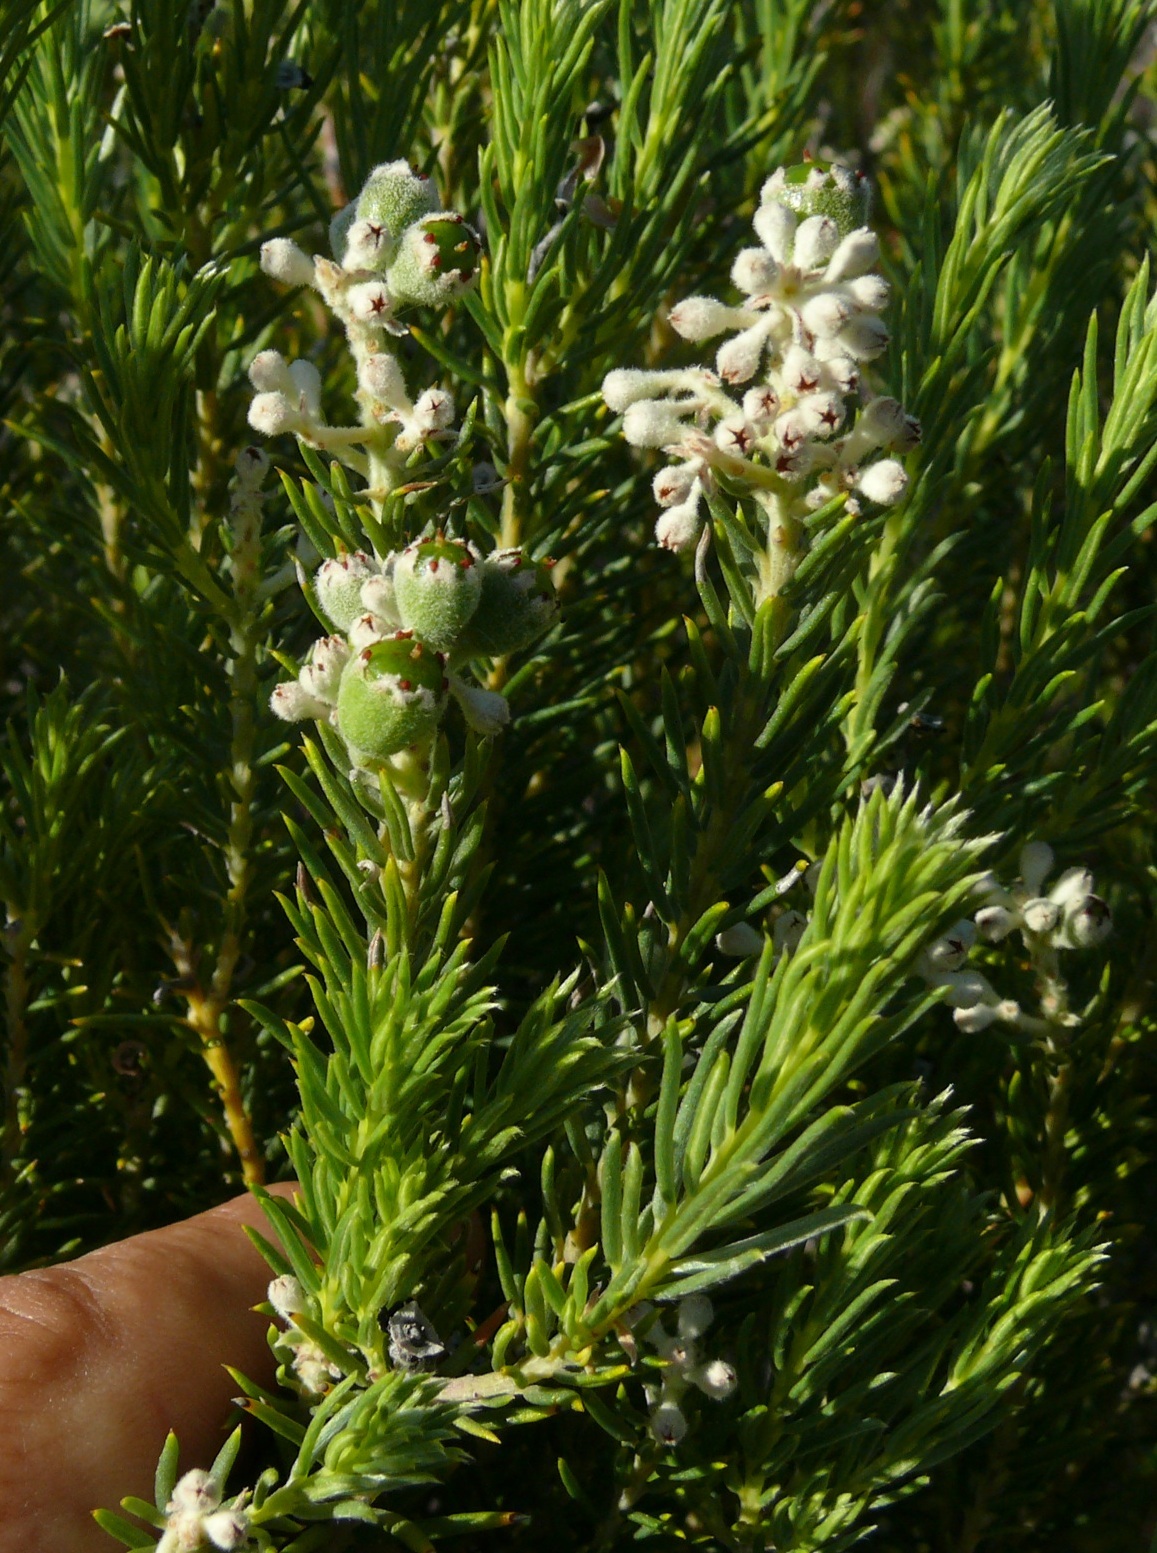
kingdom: Plantae
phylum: Tracheophyta
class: Magnoliopsida
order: Rosales
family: Rhamnaceae
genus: Phylica
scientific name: Phylica rigidifolia
